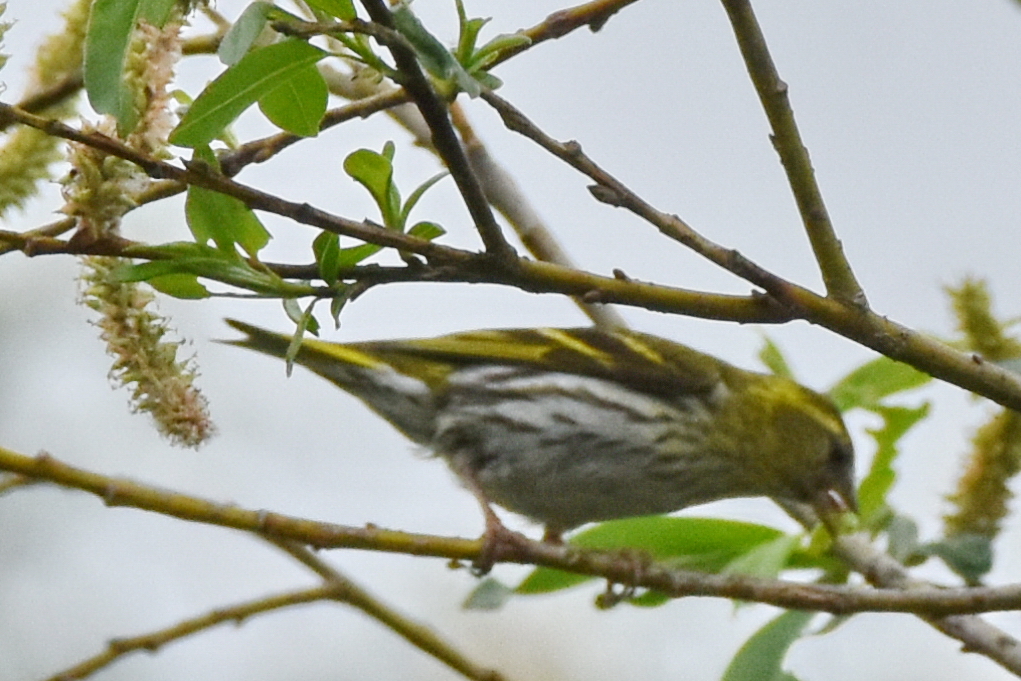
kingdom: Animalia
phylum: Chordata
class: Aves
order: Passeriformes
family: Fringillidae
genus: Spinus
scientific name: Spinus spinus
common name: Eurasian siskin
